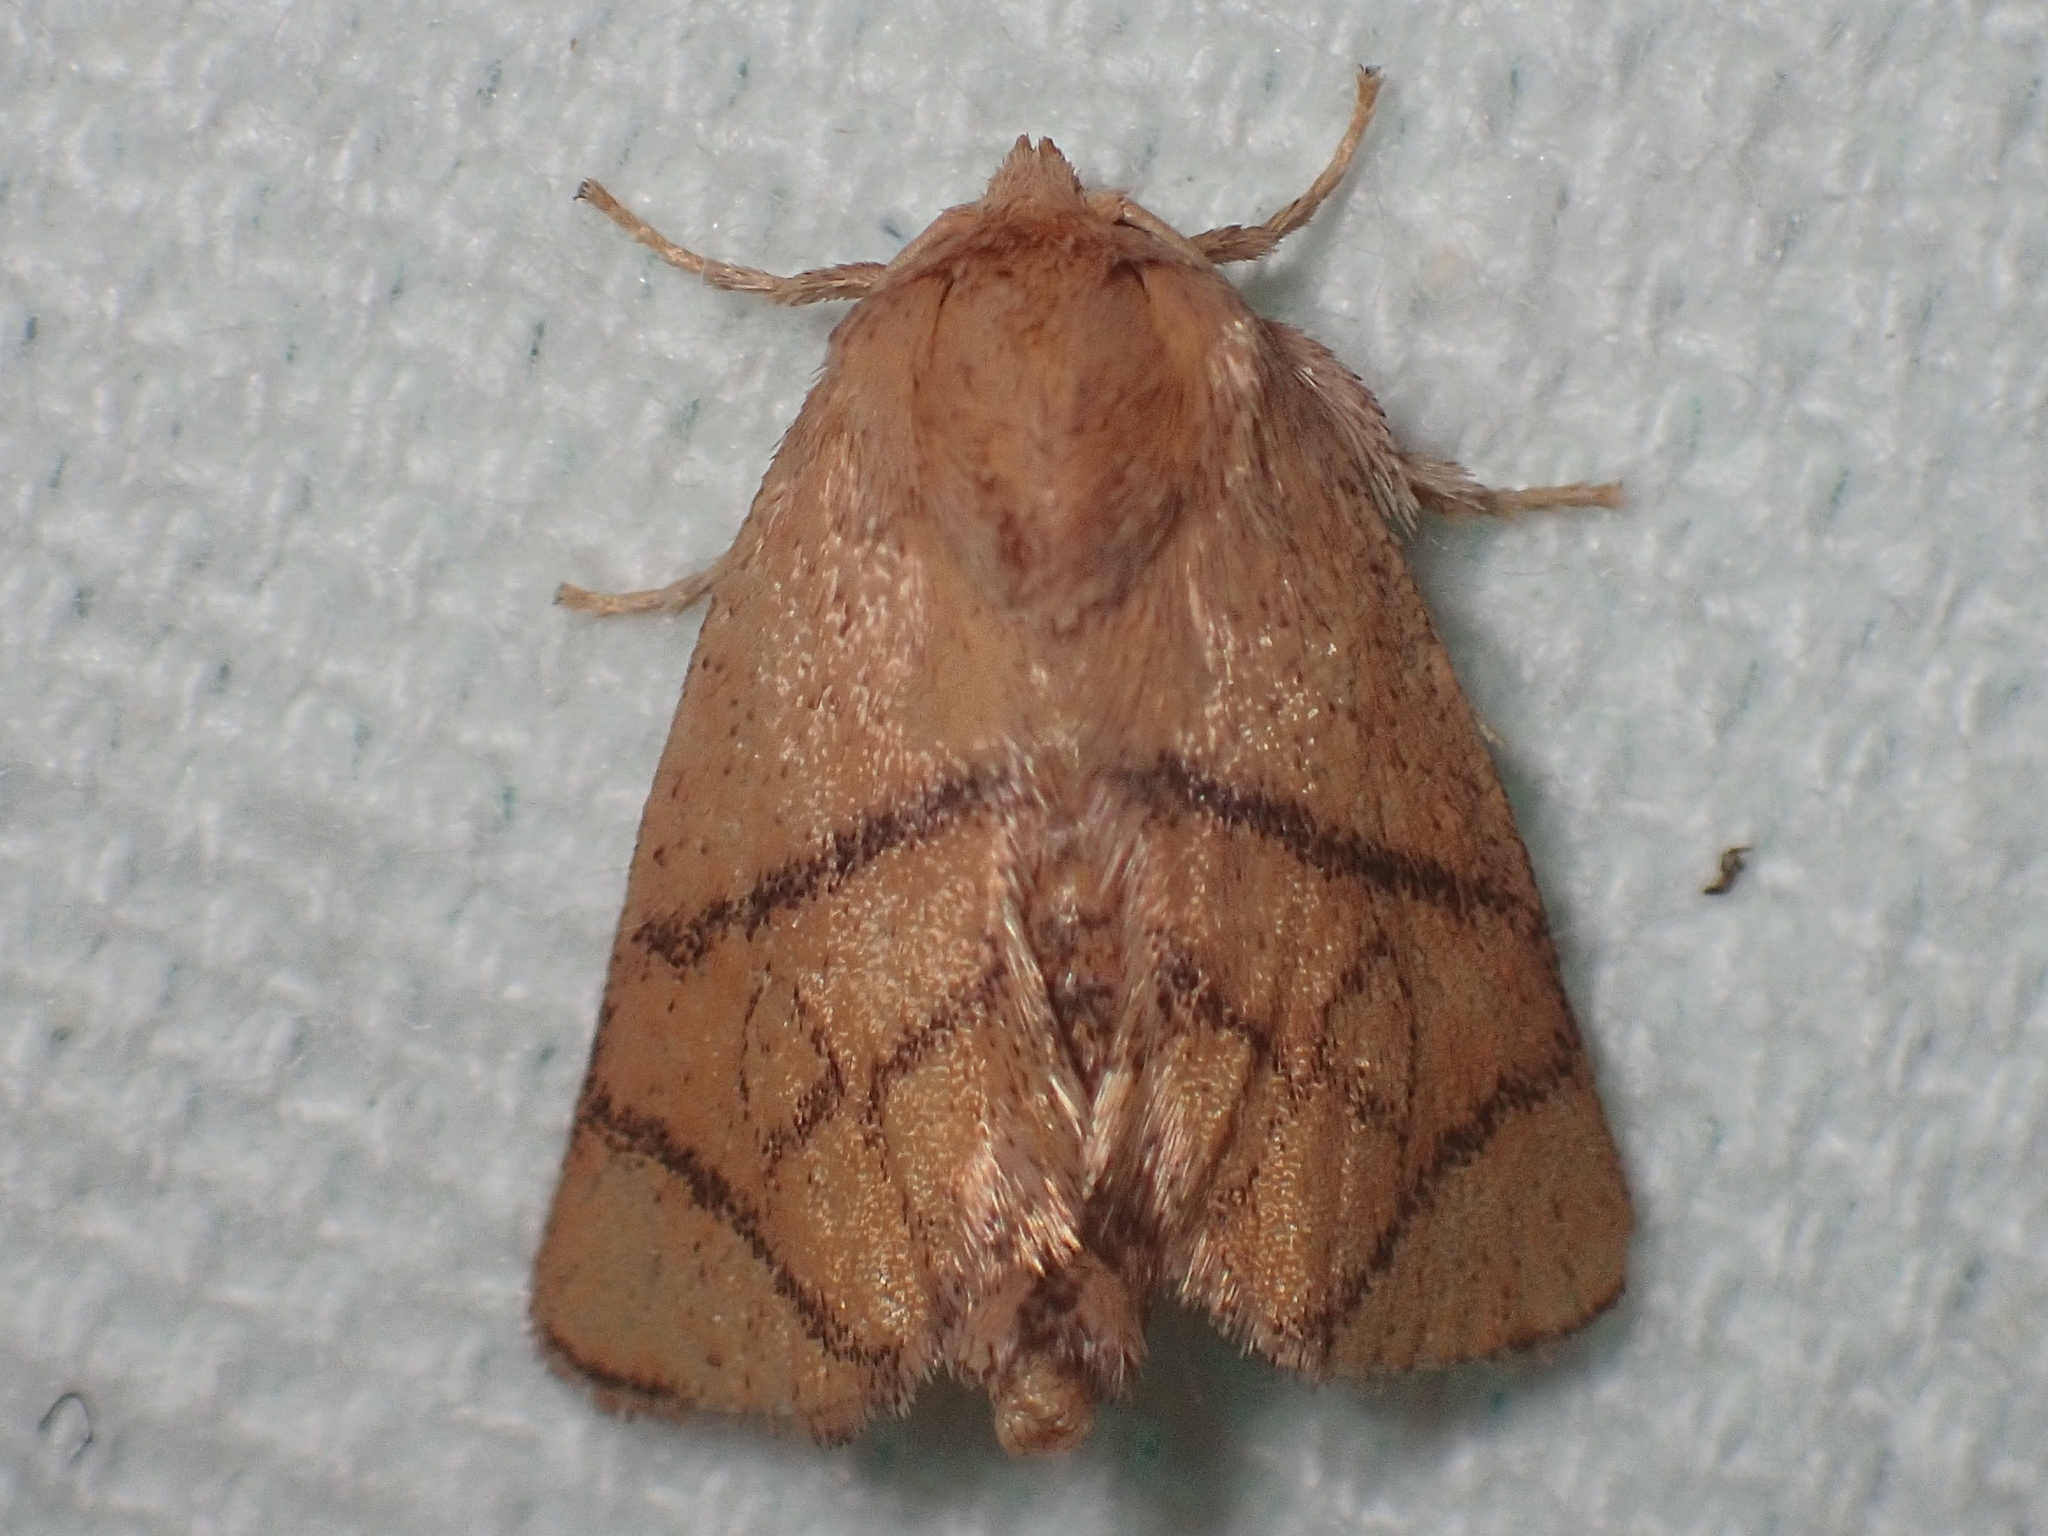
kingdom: Animalia
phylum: Arthropoda
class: Insecta
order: Lepidoptera
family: Limacodidae
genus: Apoda
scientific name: Apoda y-inversa
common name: Yellow-collared slug moth
